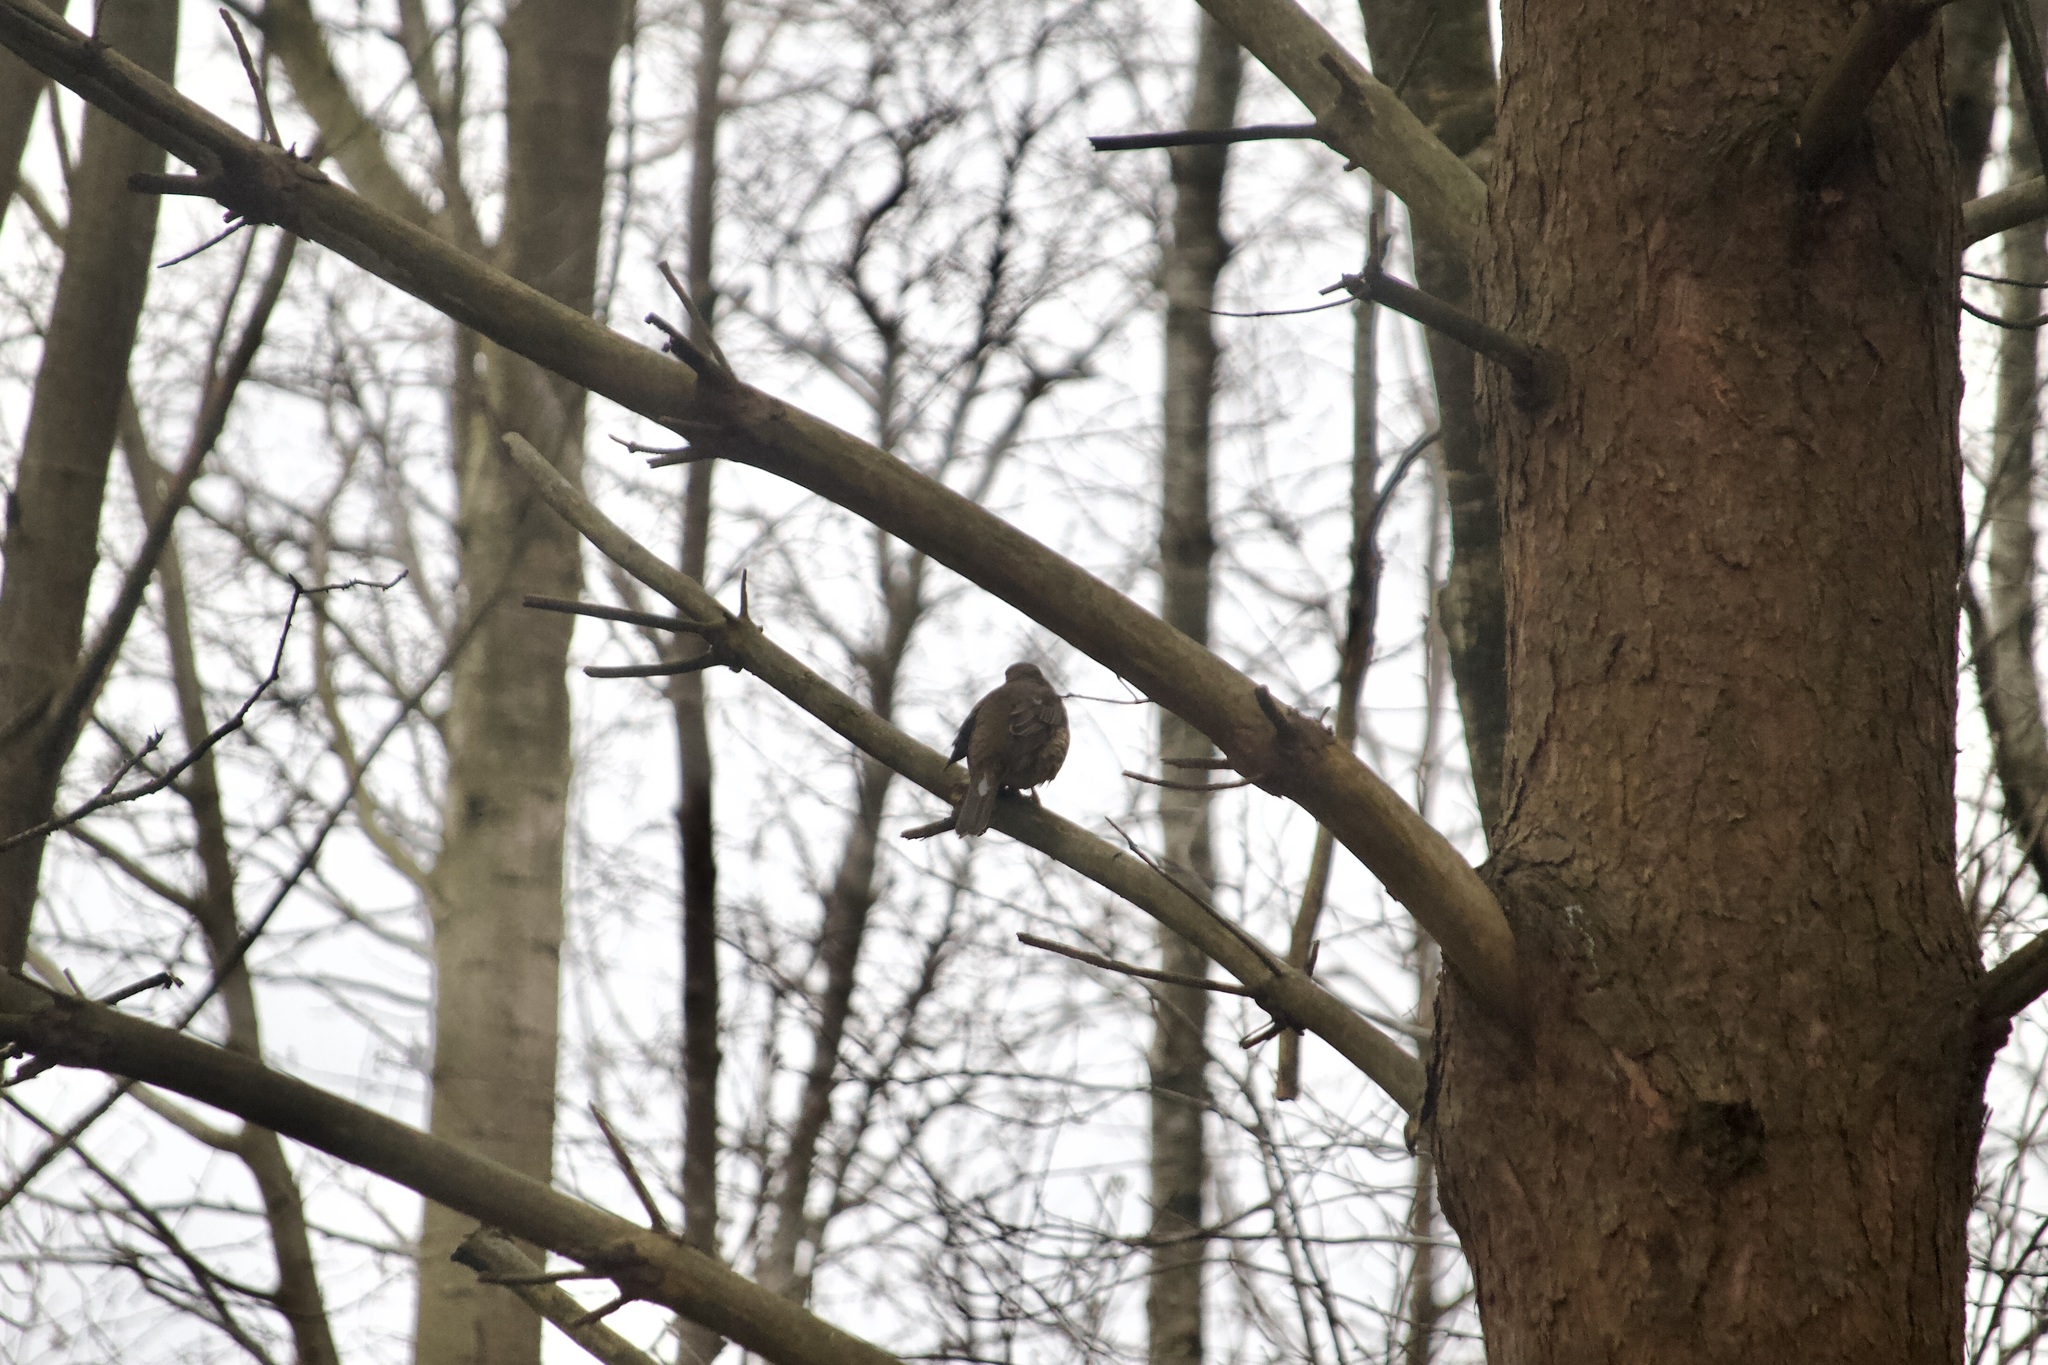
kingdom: Animalia
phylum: Chordata
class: Aves
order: Passeriformes
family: Turdidae
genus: Turdus
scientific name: Turdus philomelos
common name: Song thrush
